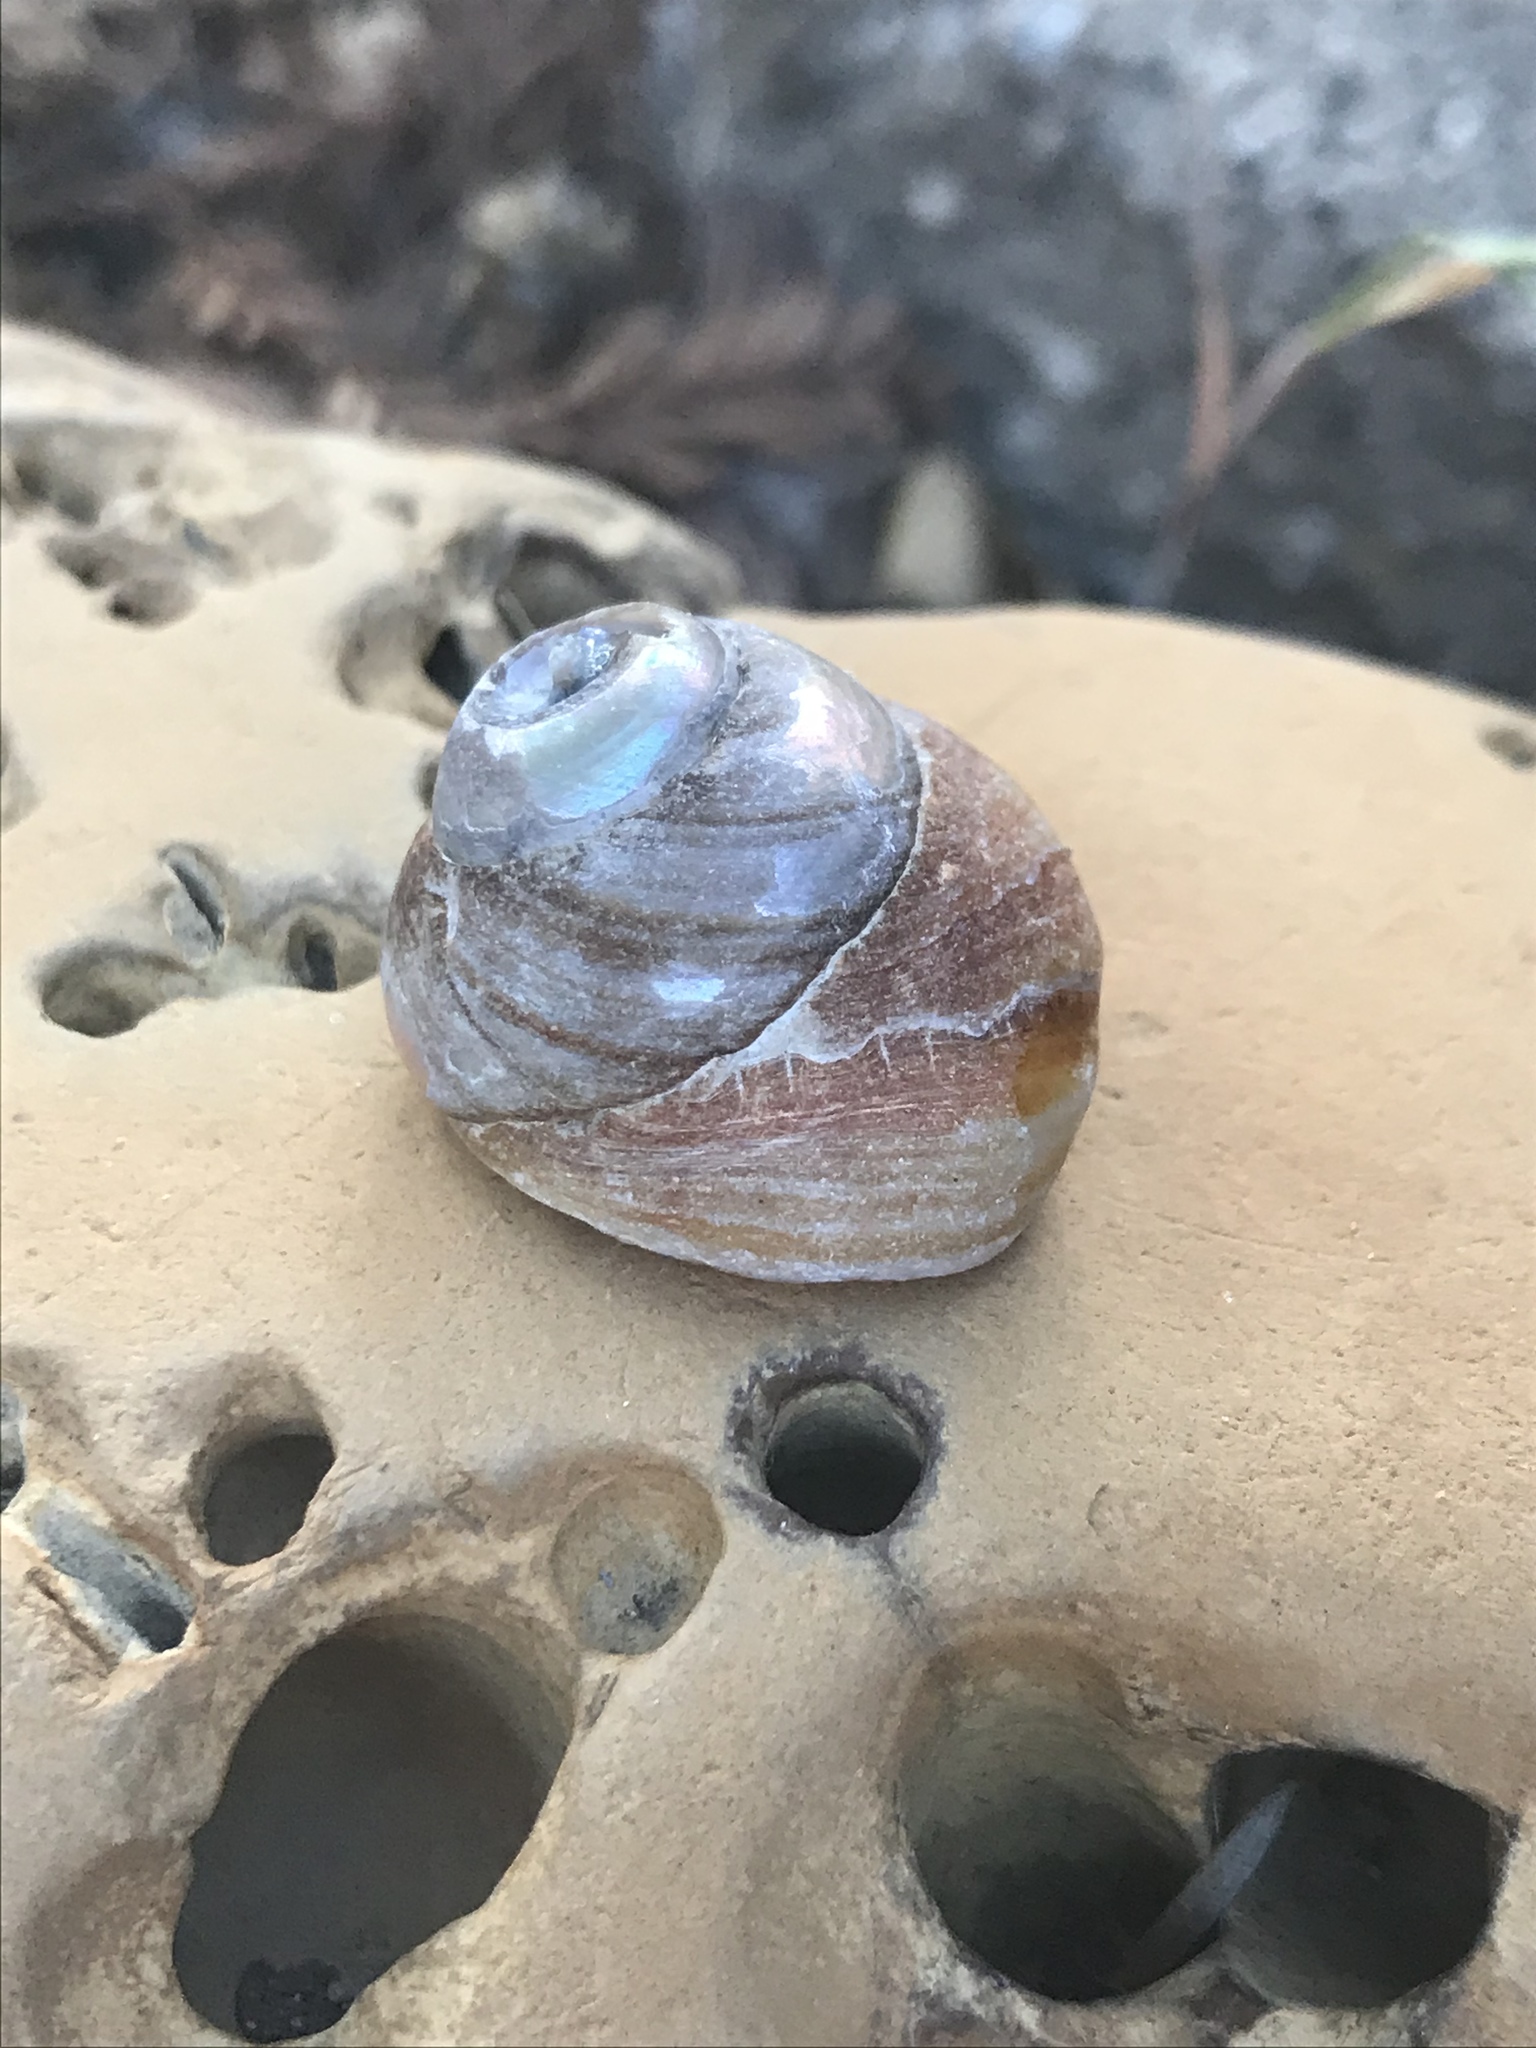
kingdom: Animalia
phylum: Mollusca
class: Gastropoda
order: Trochida
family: Tegulidae
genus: Tegula
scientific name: Tegula brunnea
